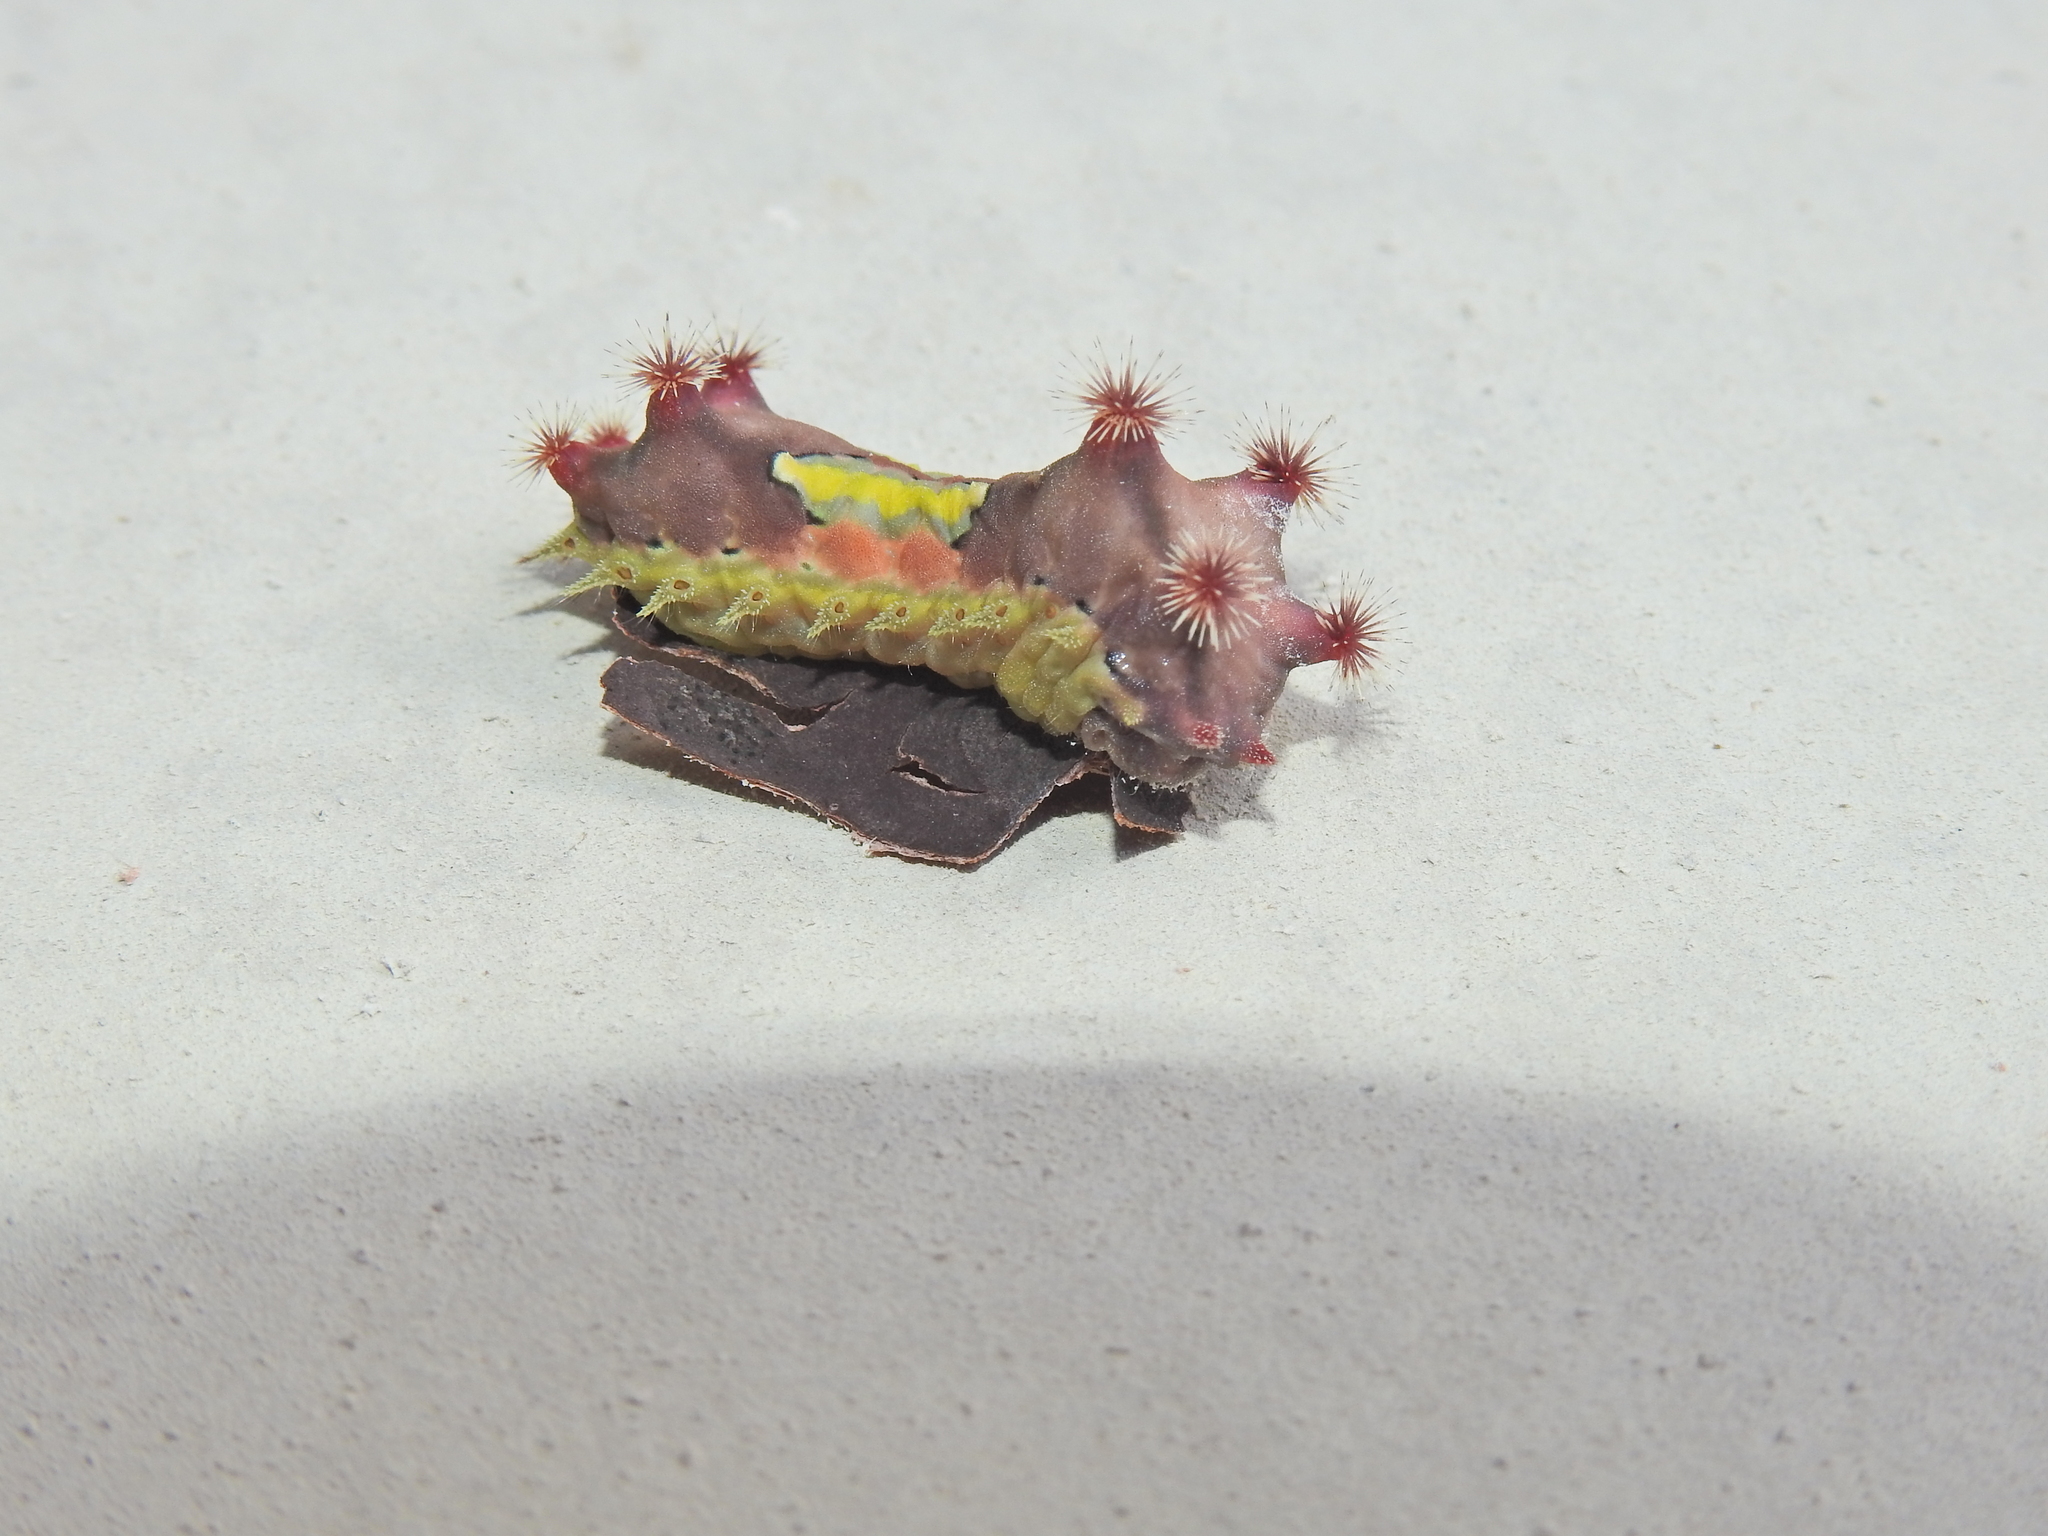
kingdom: Animalia
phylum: Arthropoda
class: Insecta
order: Lepidoptera
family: Limacodidae
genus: Doratifera
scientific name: Doratifera vulnerans
